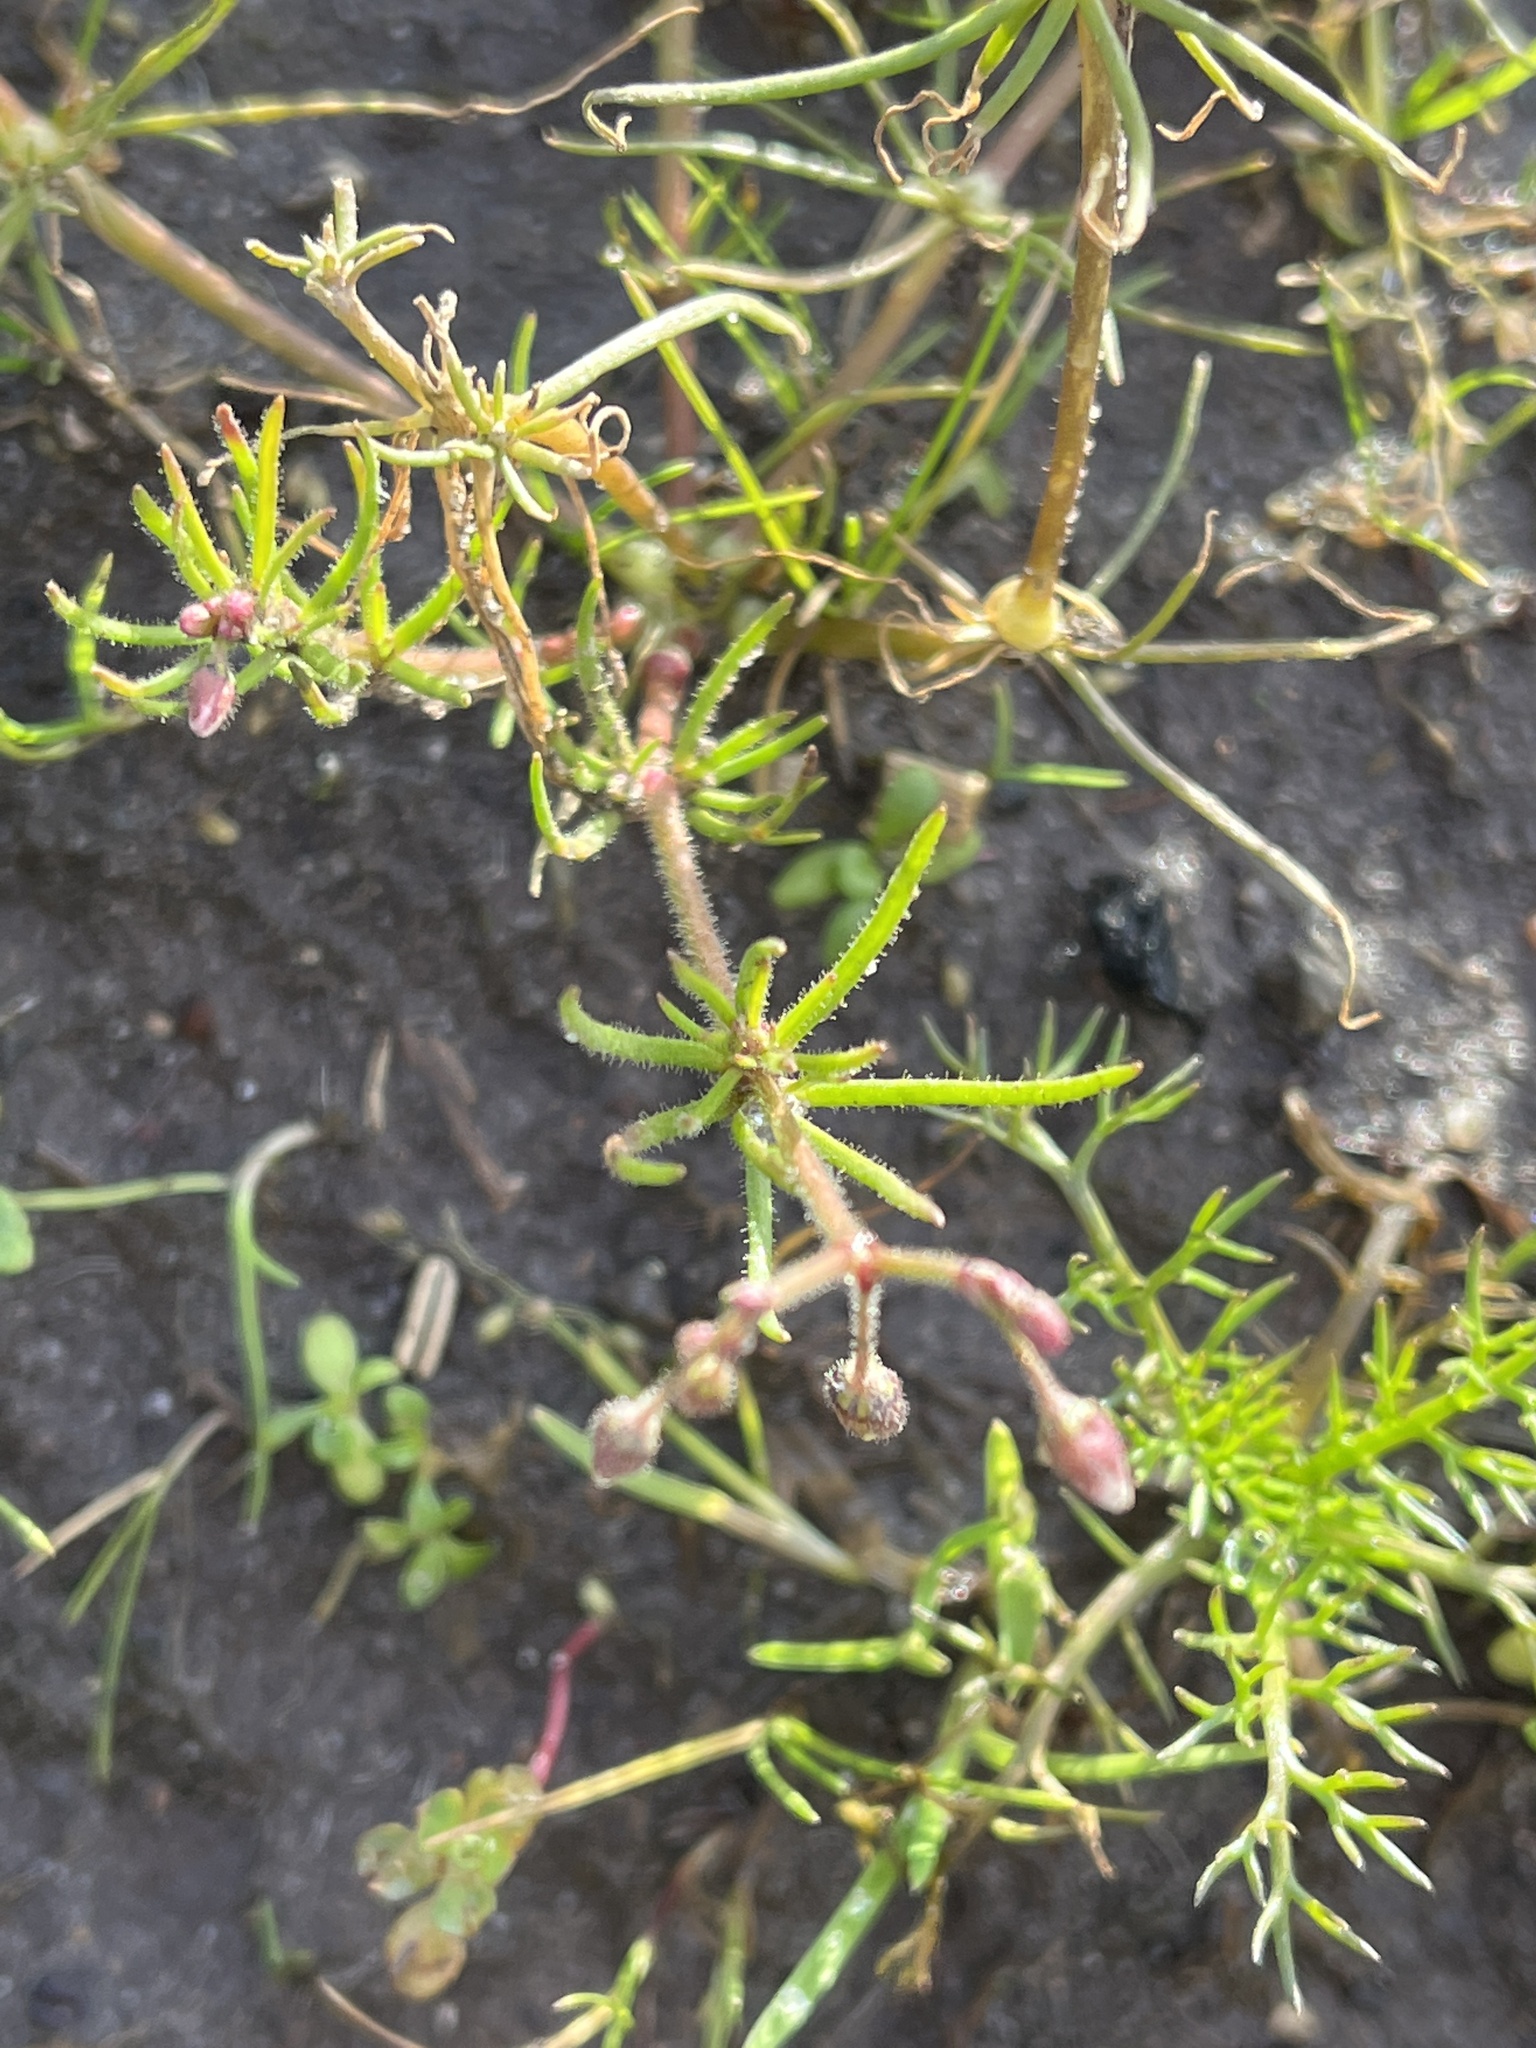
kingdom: Plantae
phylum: Tracheophyta
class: Magnoliopsida
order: Caryophyllales
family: Caryophyllaceae
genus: Spergula
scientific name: Spergula arvensis
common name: Corn spurrey
